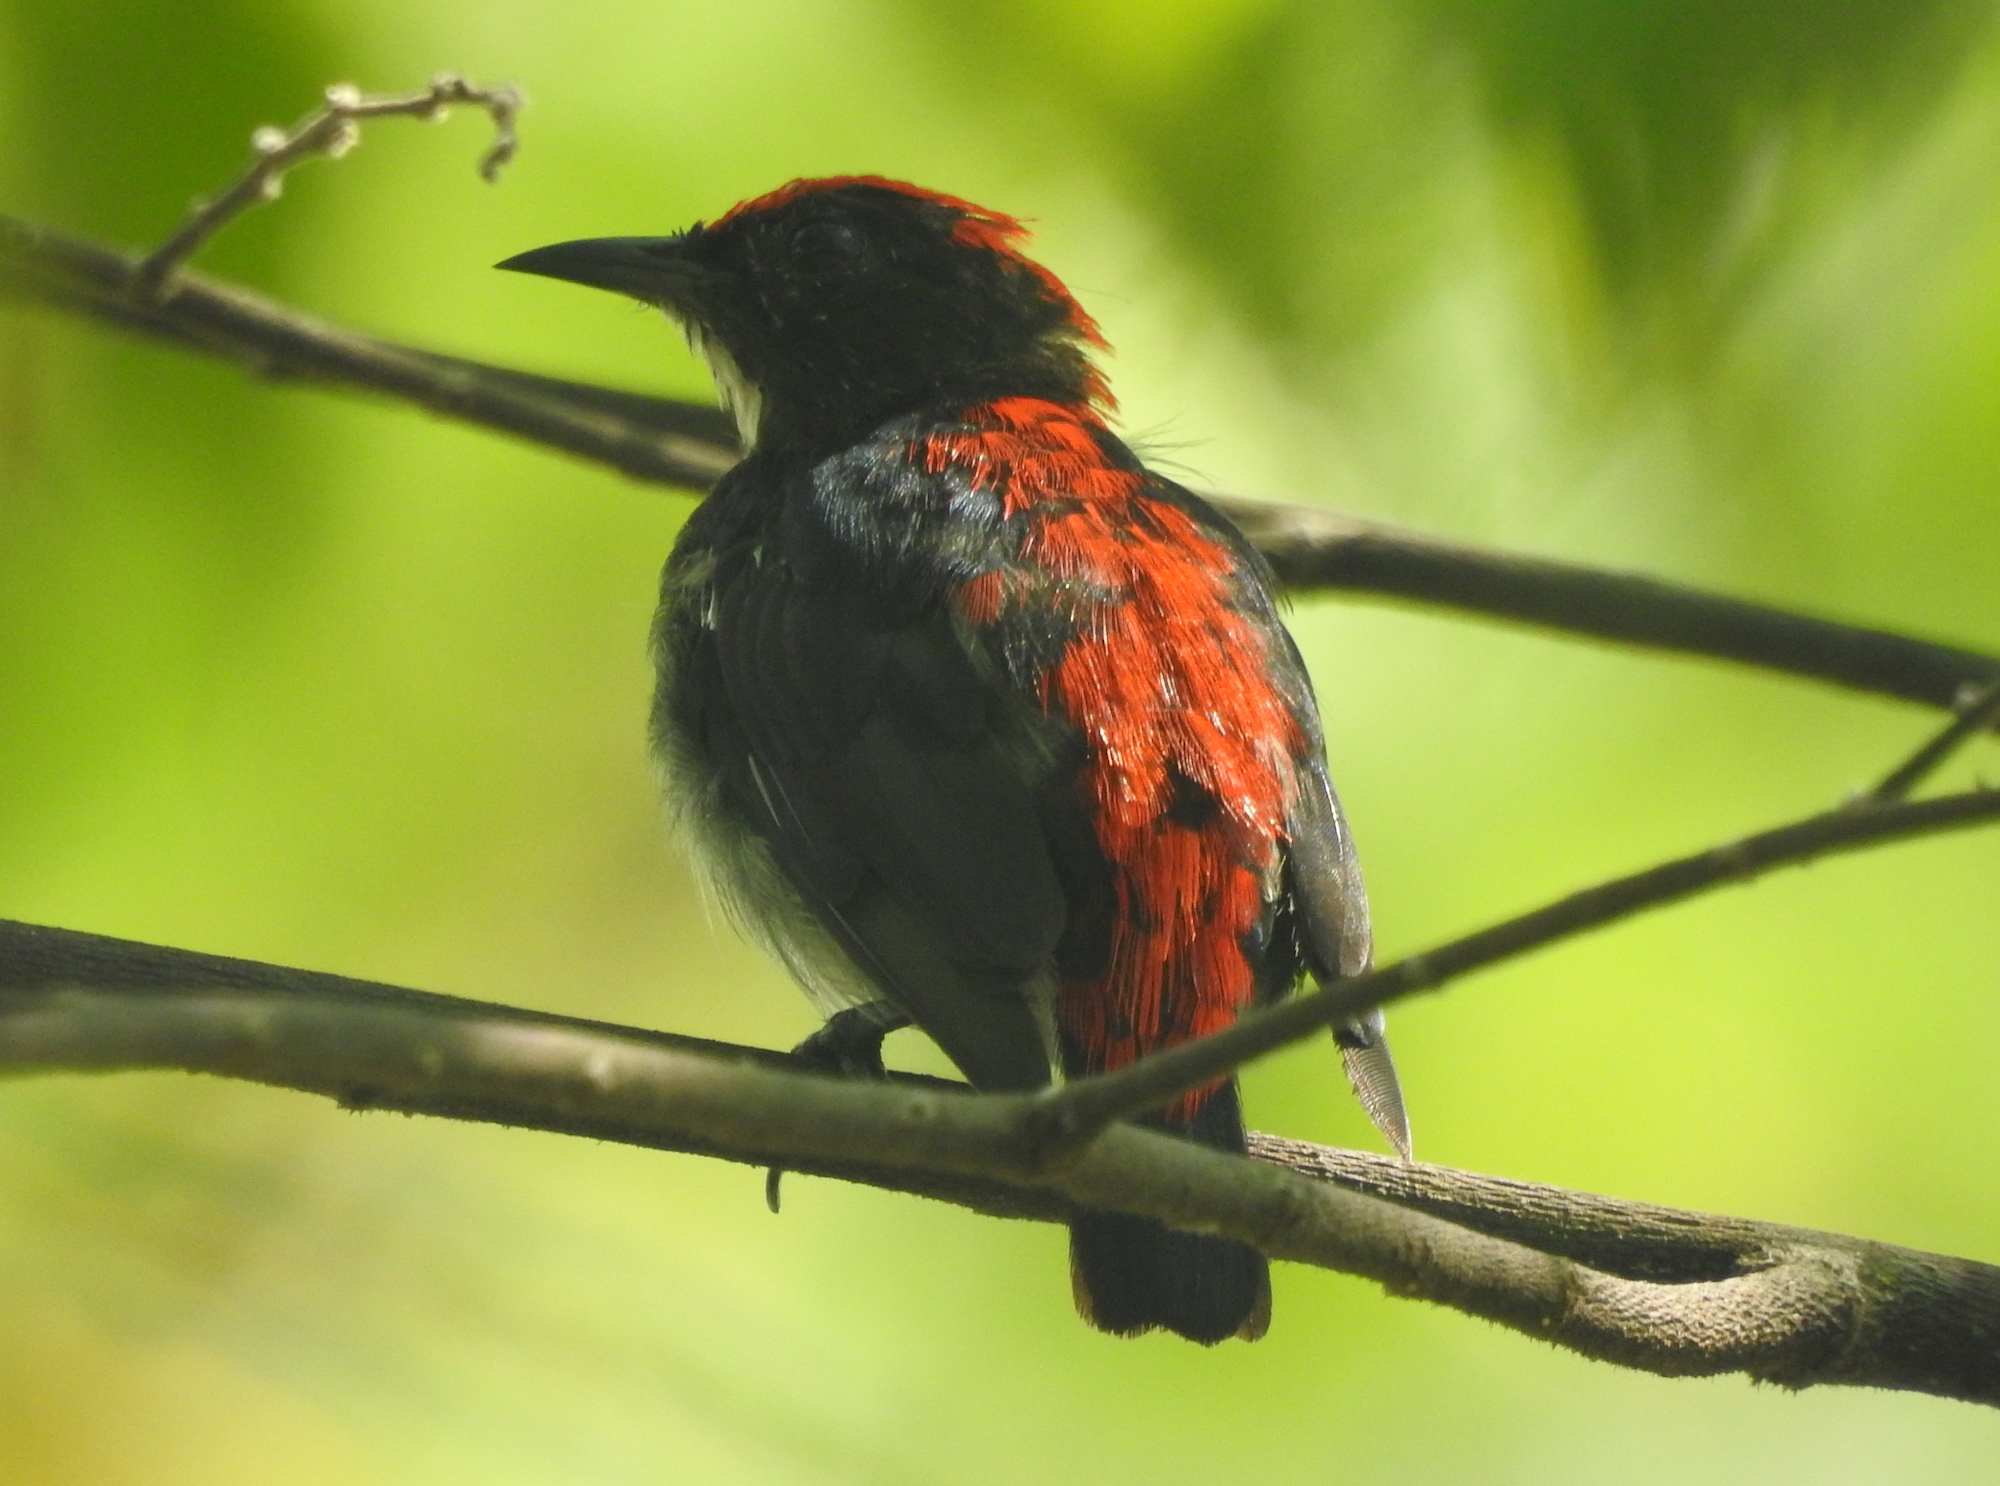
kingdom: Animalia
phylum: Chordata
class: Aves
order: Passeriformes
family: Dicaeidae
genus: Dicaeum
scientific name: Dicaeum cruentatum
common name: Scarlet-backed flowerpecker
